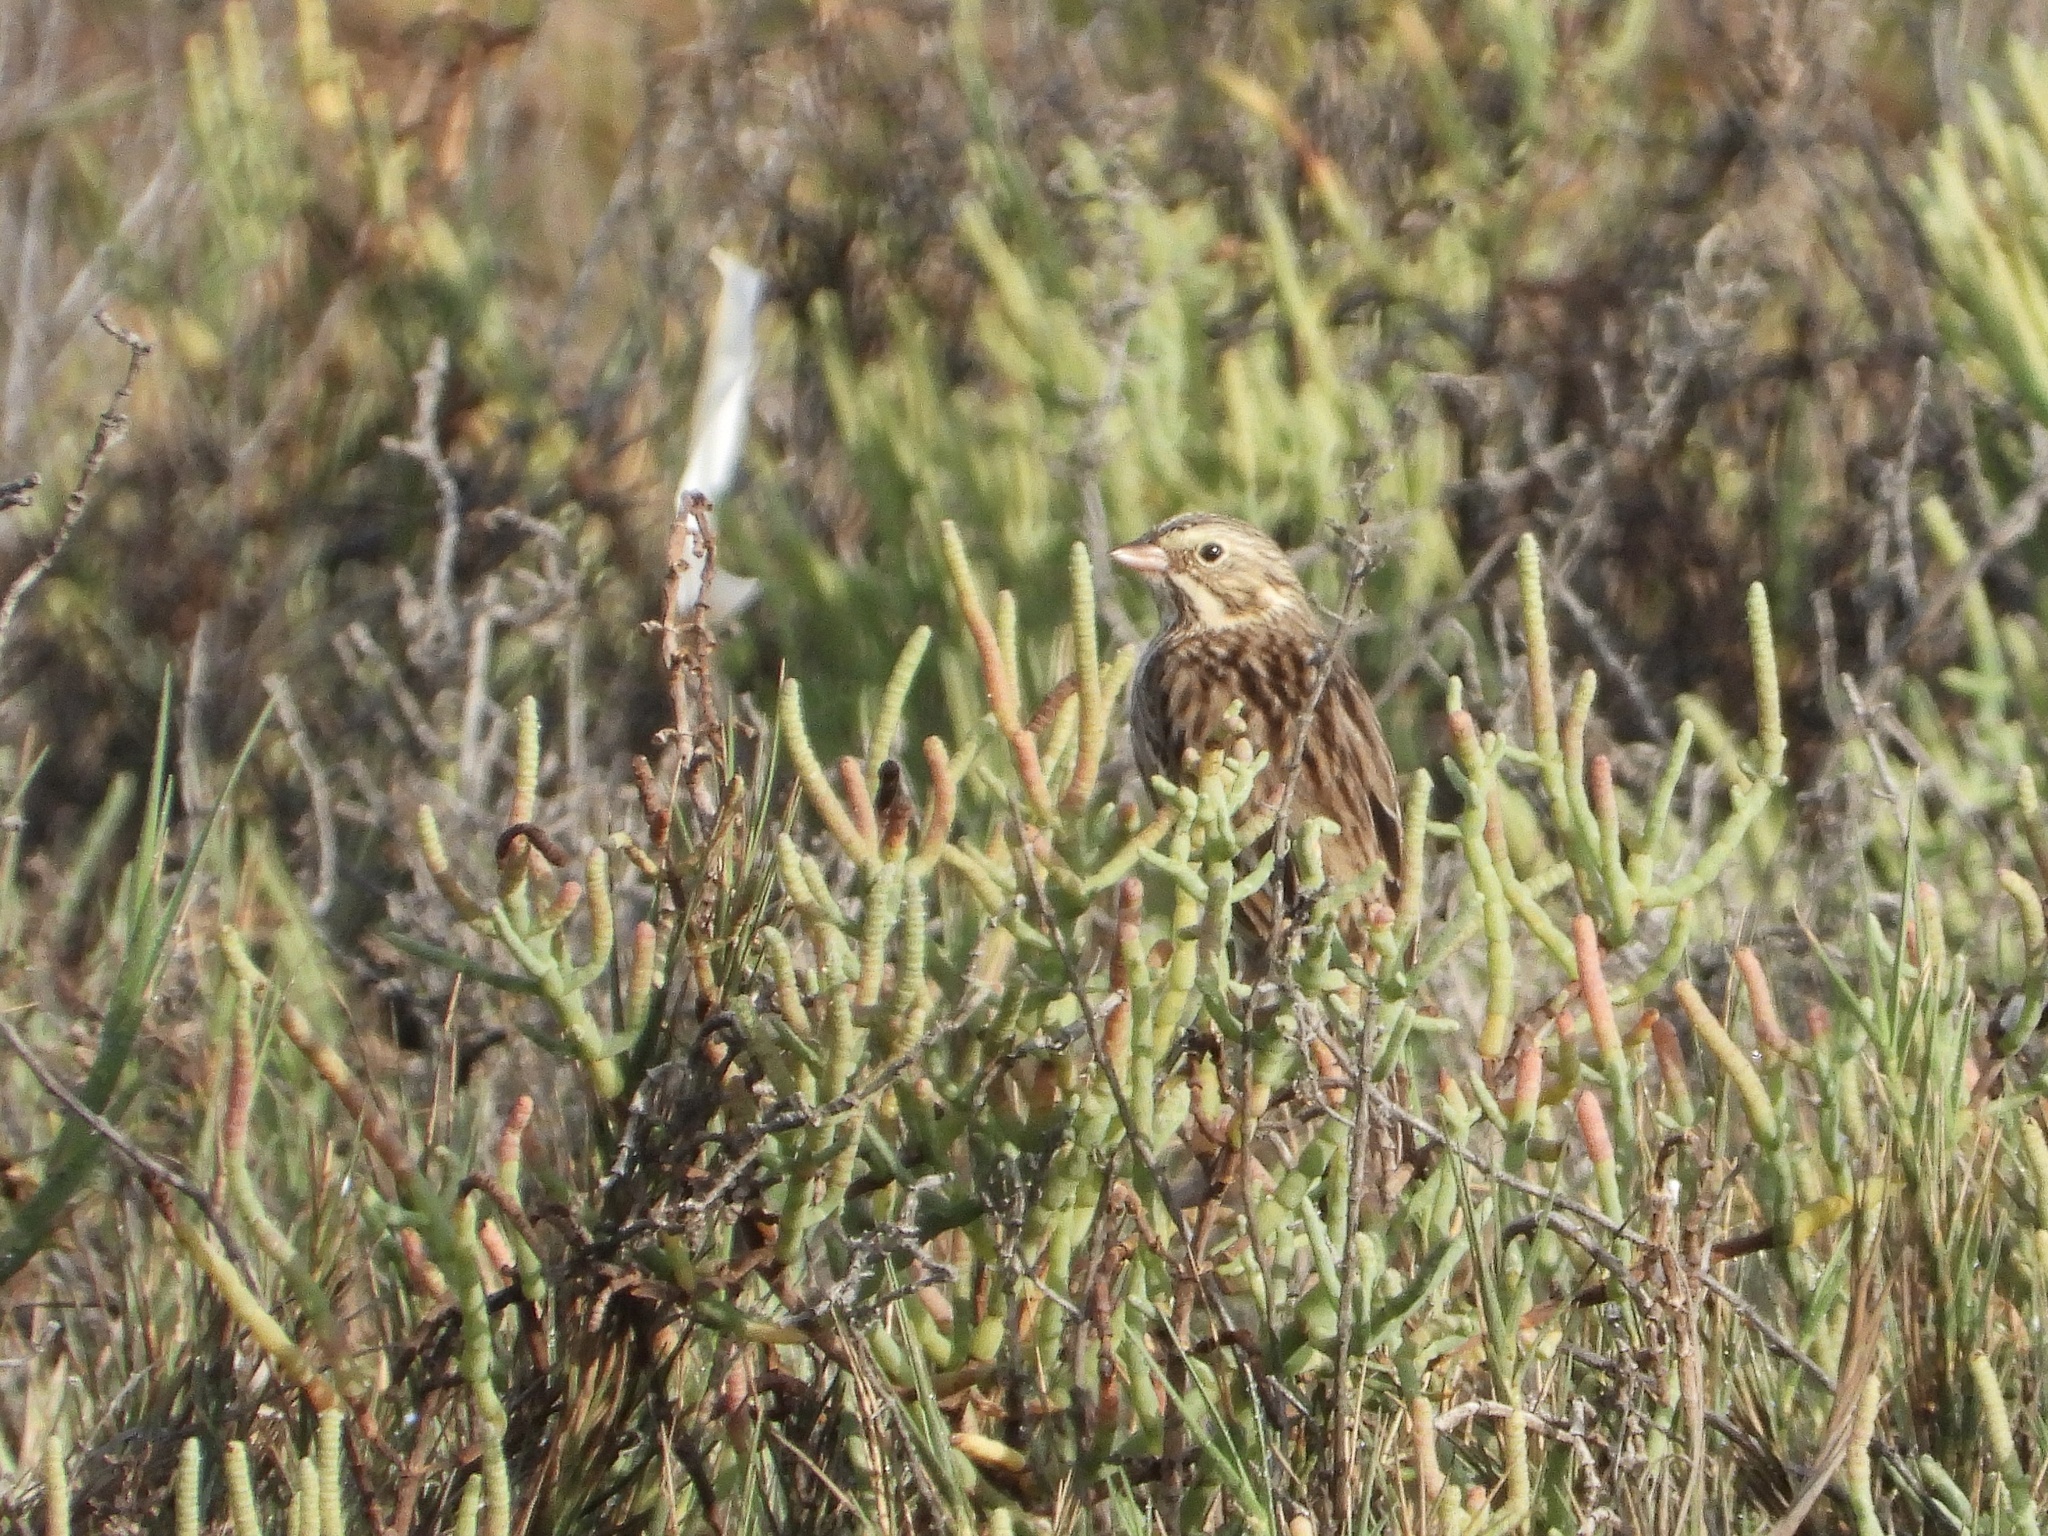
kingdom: Animalia
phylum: Chordata
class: Aves
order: Passeriformes
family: Passerellidae
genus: Passerculus
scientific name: Passerculus sandwichensis
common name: Savannah sparrow
